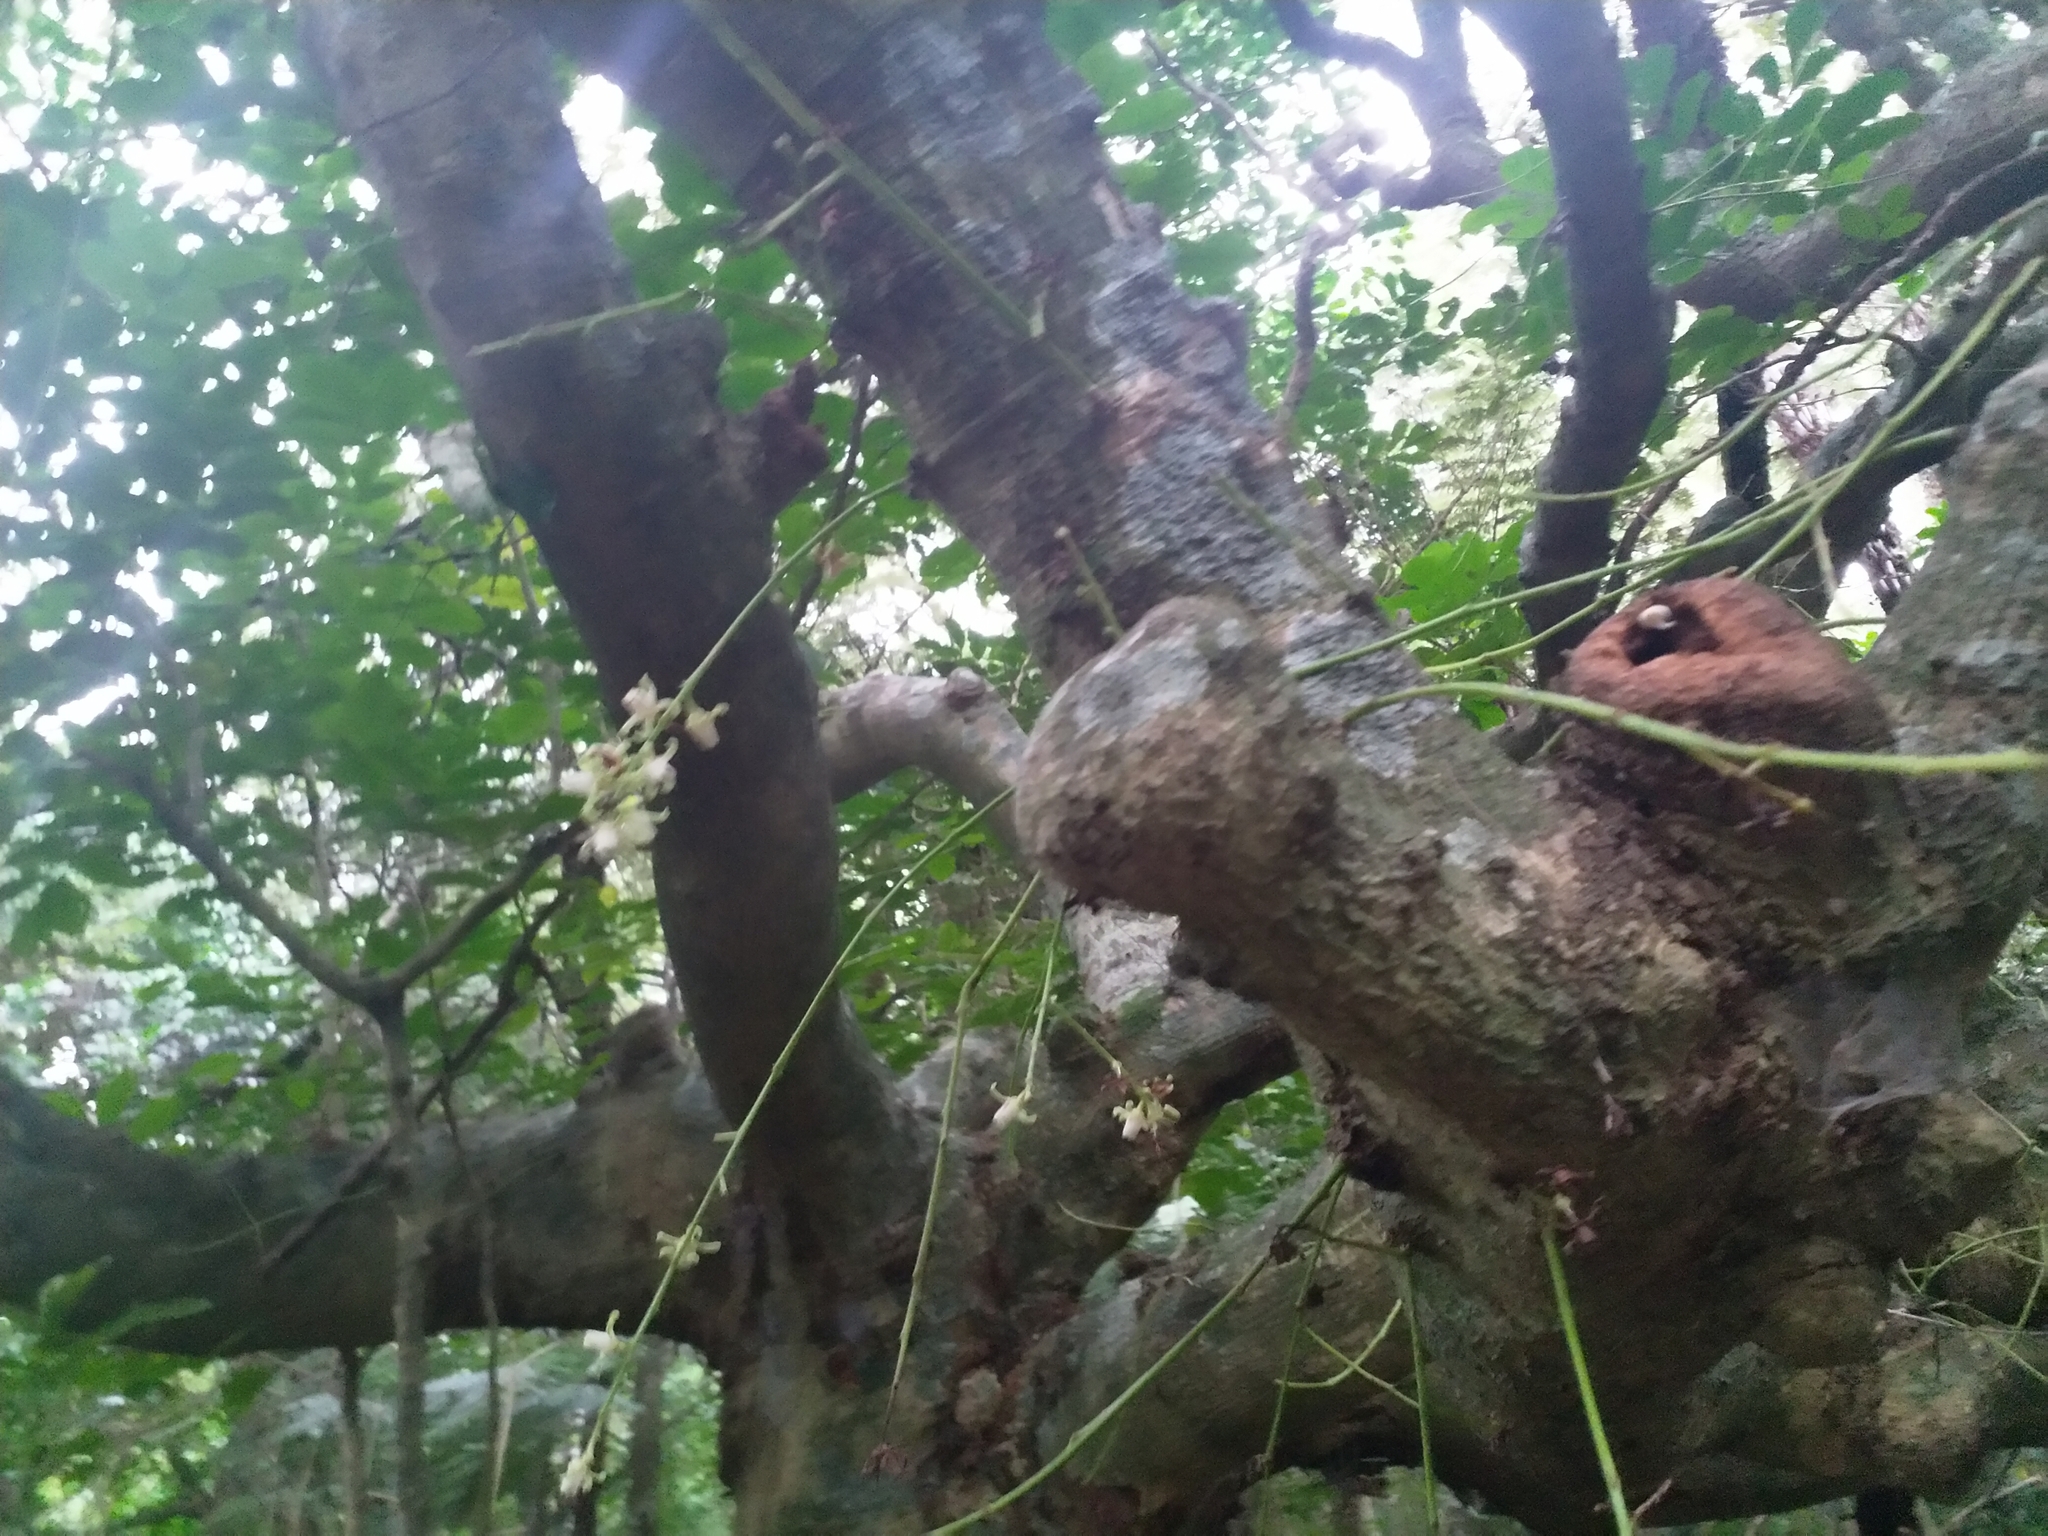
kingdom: Plantae
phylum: Tracheophyta
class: Magnoliopsida
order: Sapindales
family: Meliaceae
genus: Didymocheton
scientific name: Didymocheton spectabilis
